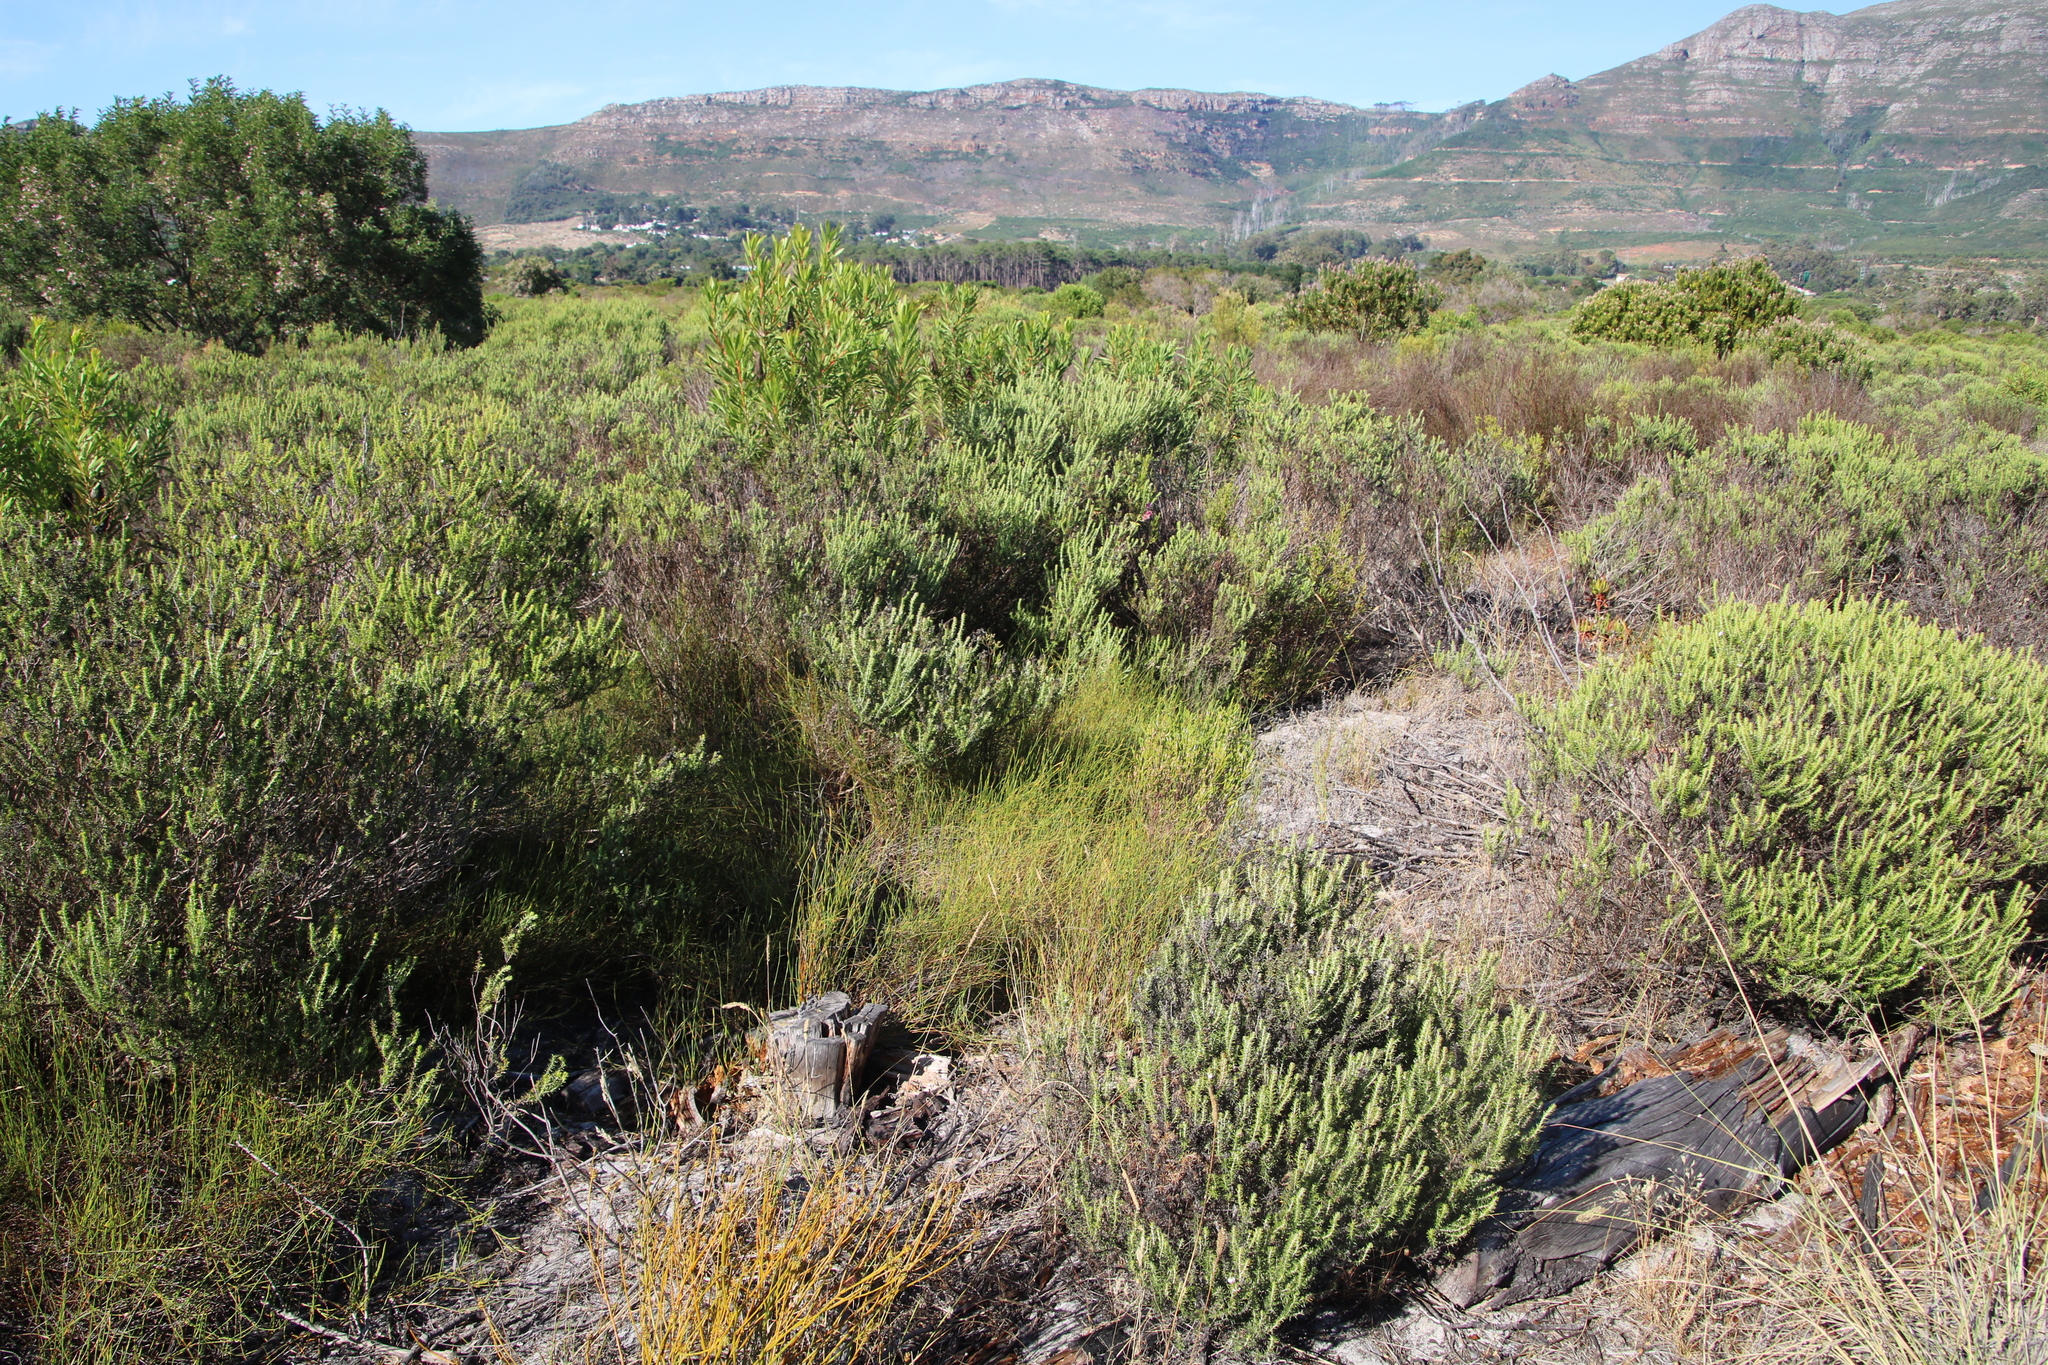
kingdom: Plantae
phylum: Tracheophyta
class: Liliopsida
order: Poales
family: Restionaceae
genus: Willdenowia
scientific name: Willdenowia sulcata
